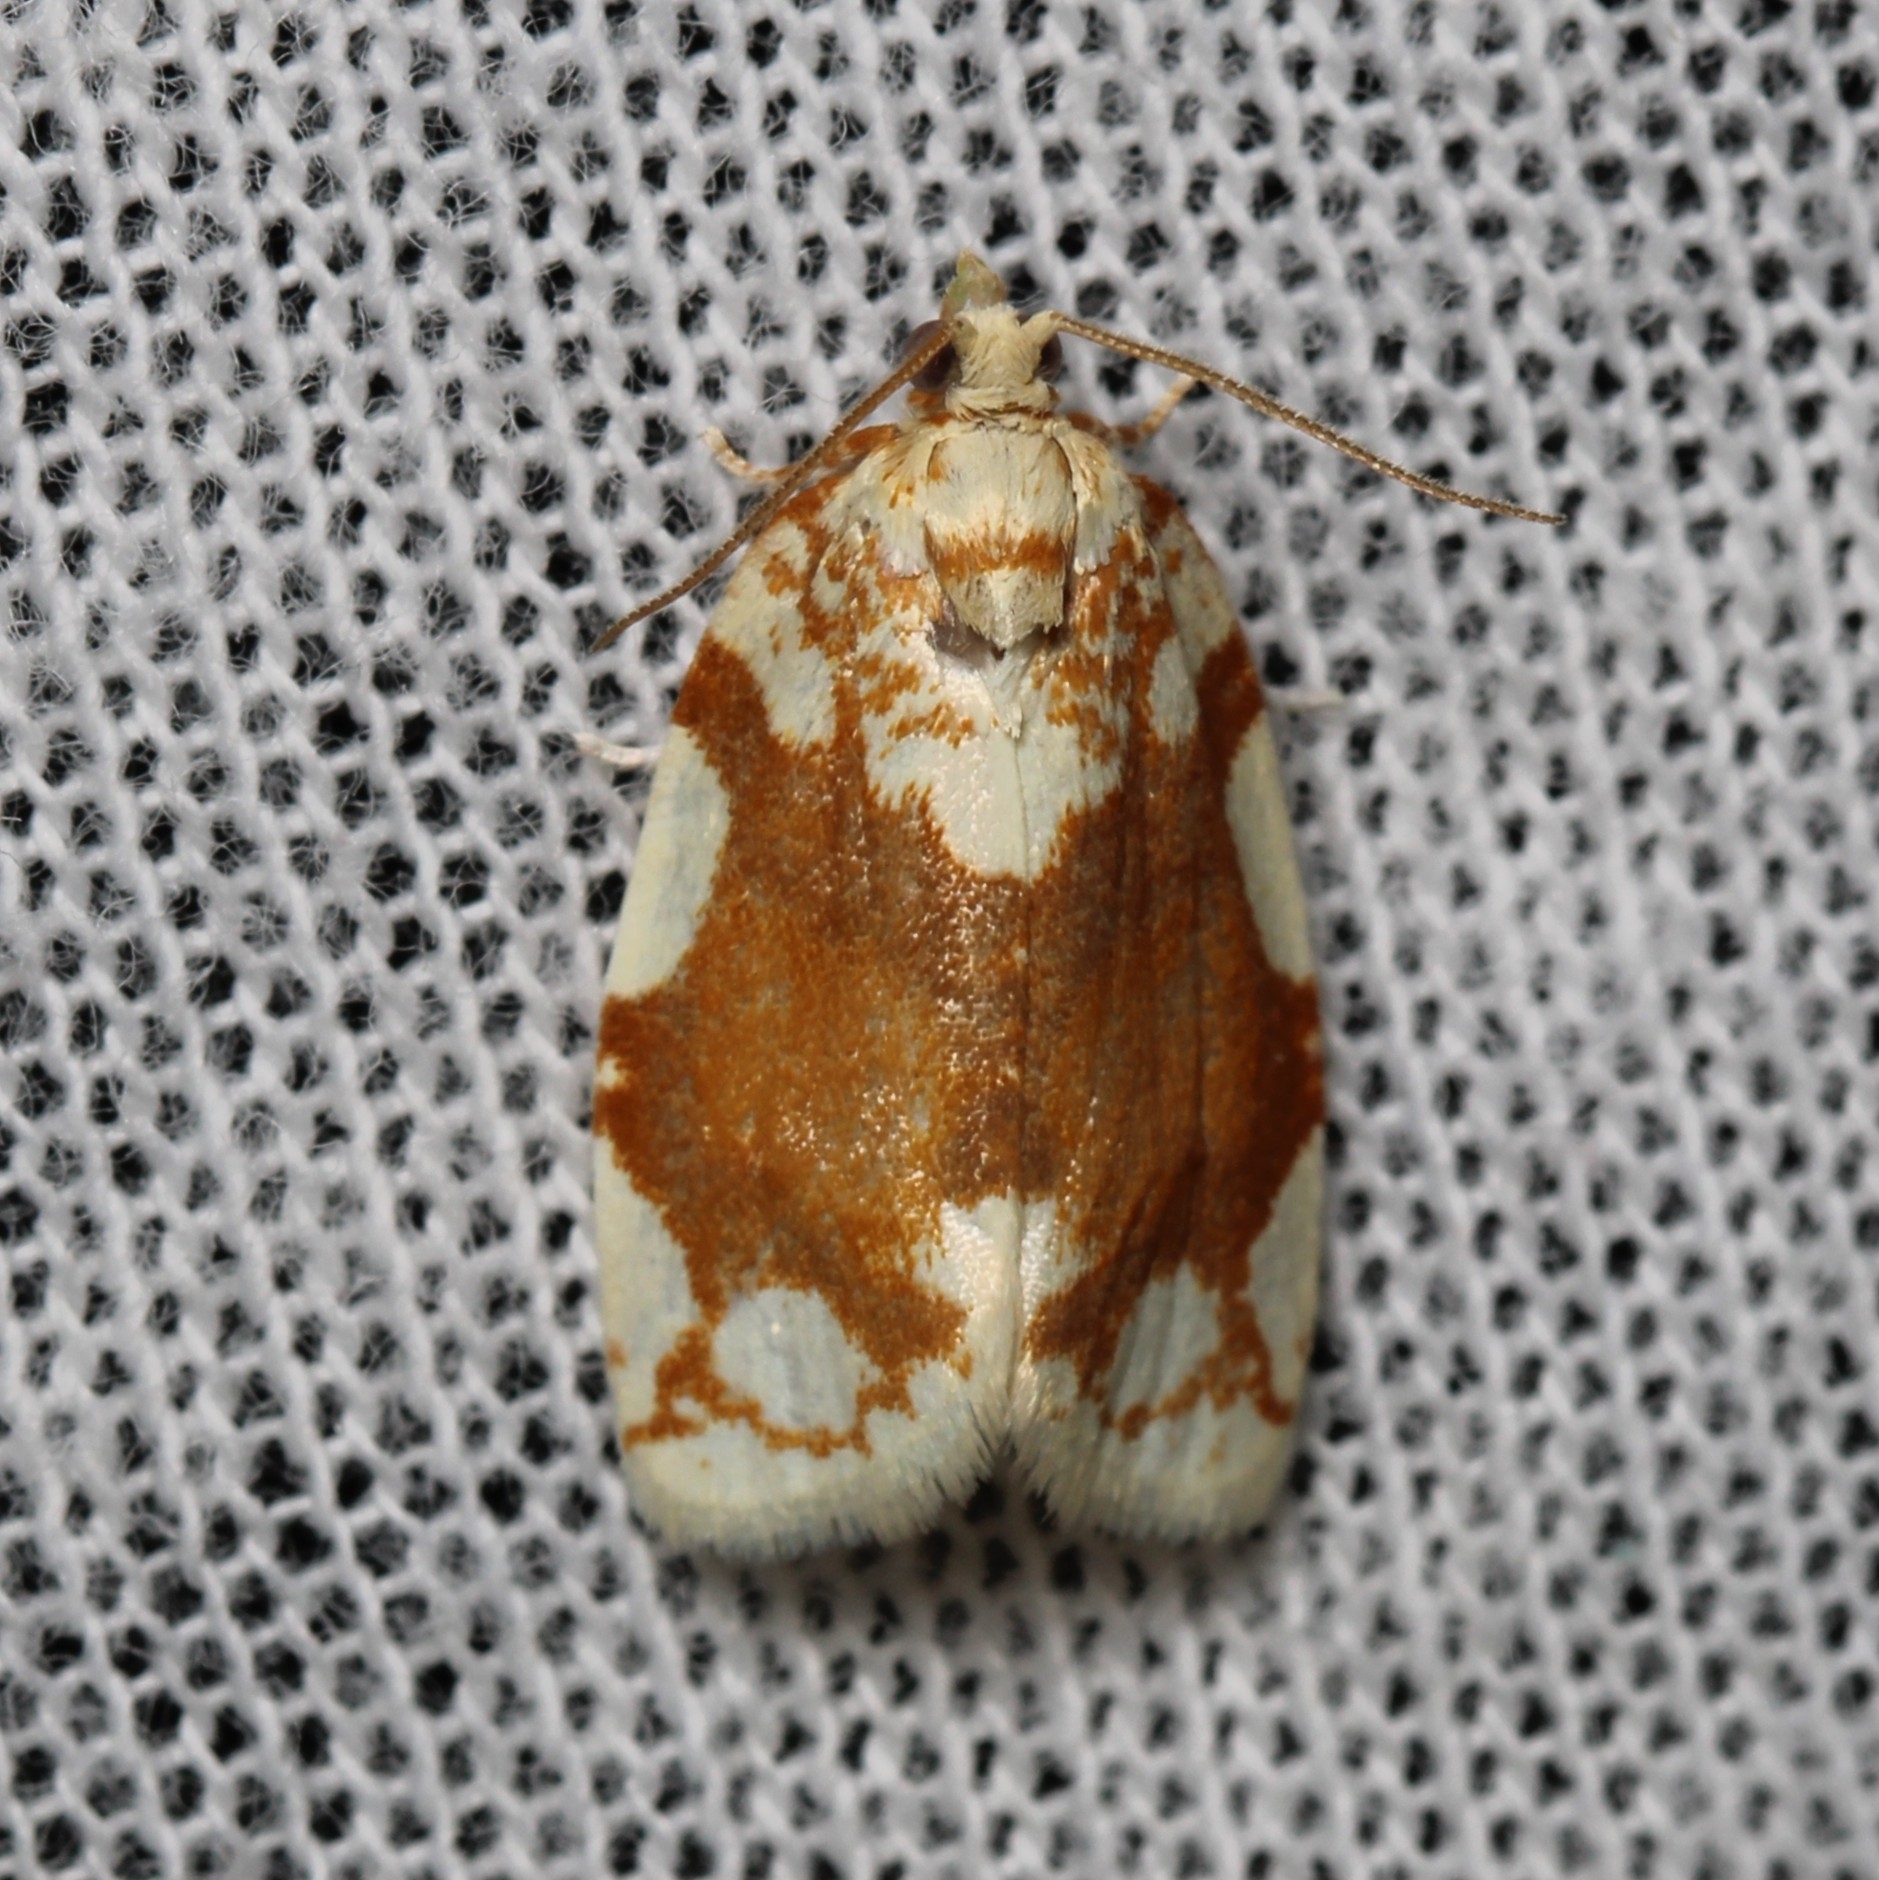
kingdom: Animalia
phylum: Arthropoda
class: Insecta
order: Lepidoptera
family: Tortricidae
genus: Argyrotaenia
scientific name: Argyrotaenia alisellana
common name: White-spotted leafroller moth
